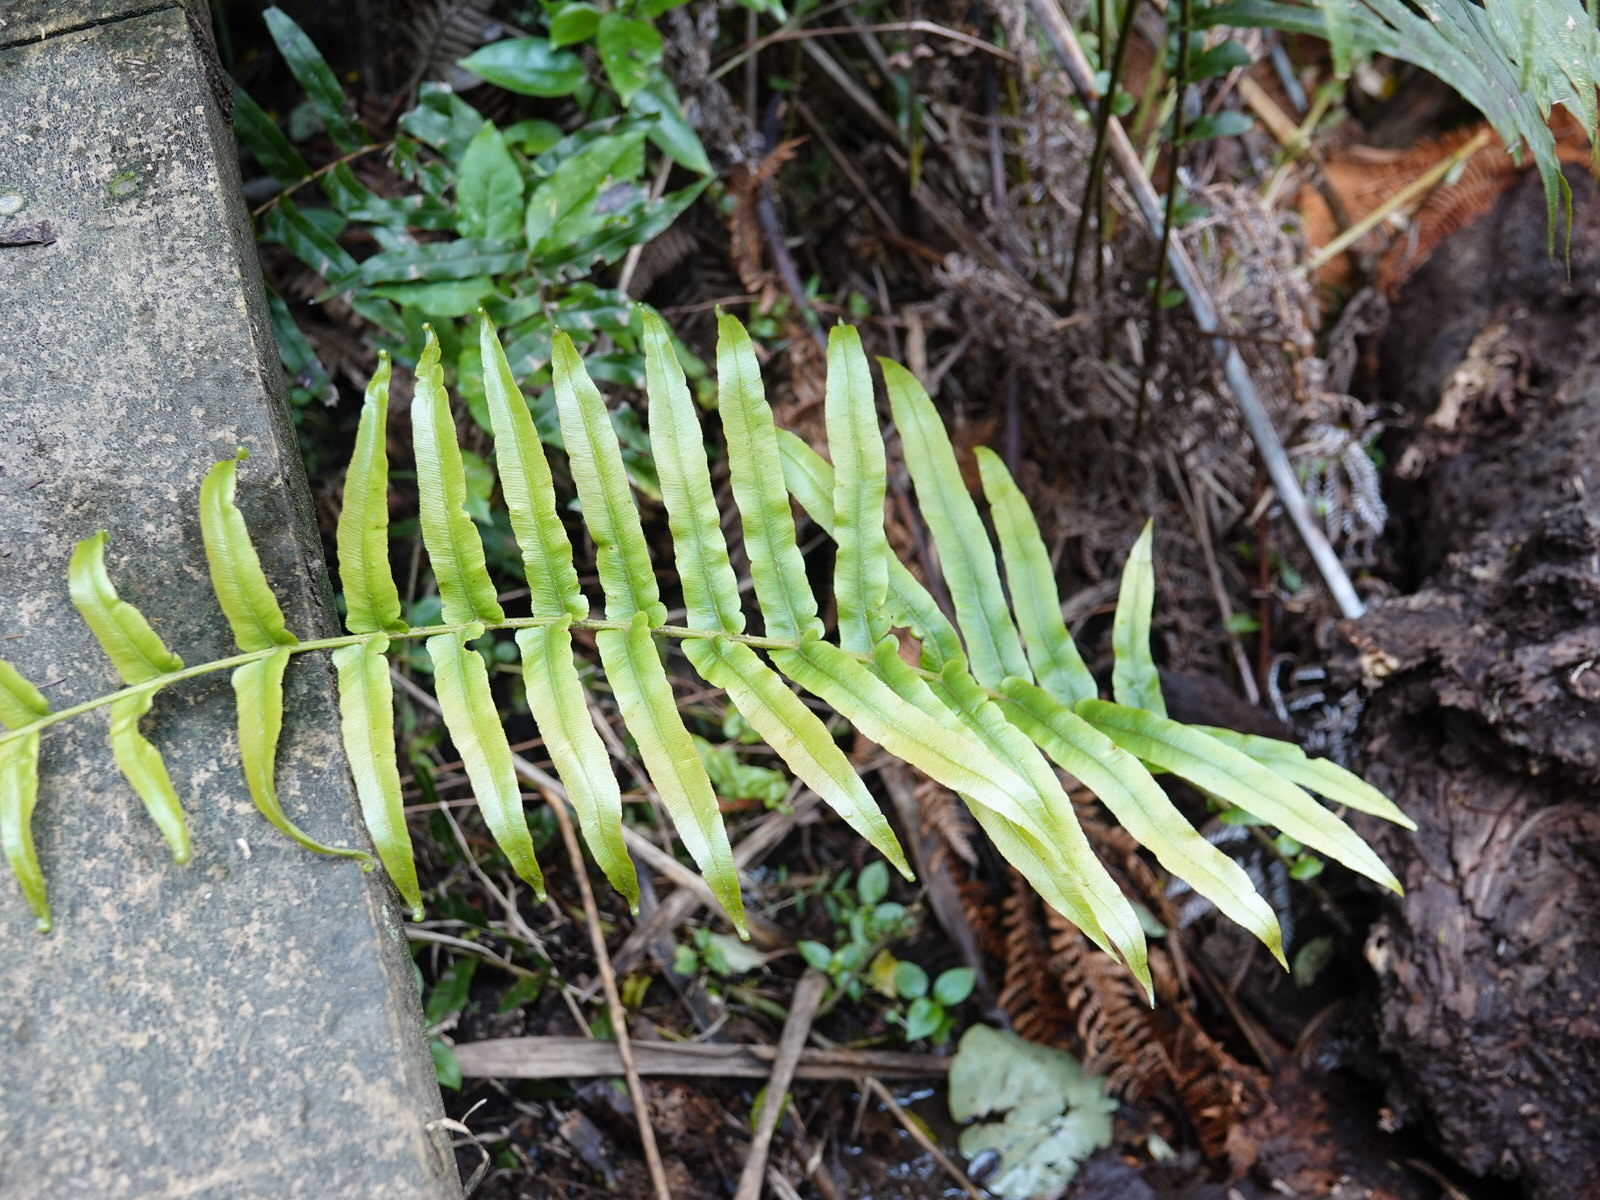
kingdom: Plantae
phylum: Tracheophyta
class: Polypodiopsida
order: Polypodiales
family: Blechnaceae
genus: Parablechnum
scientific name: Parablechnum minus
